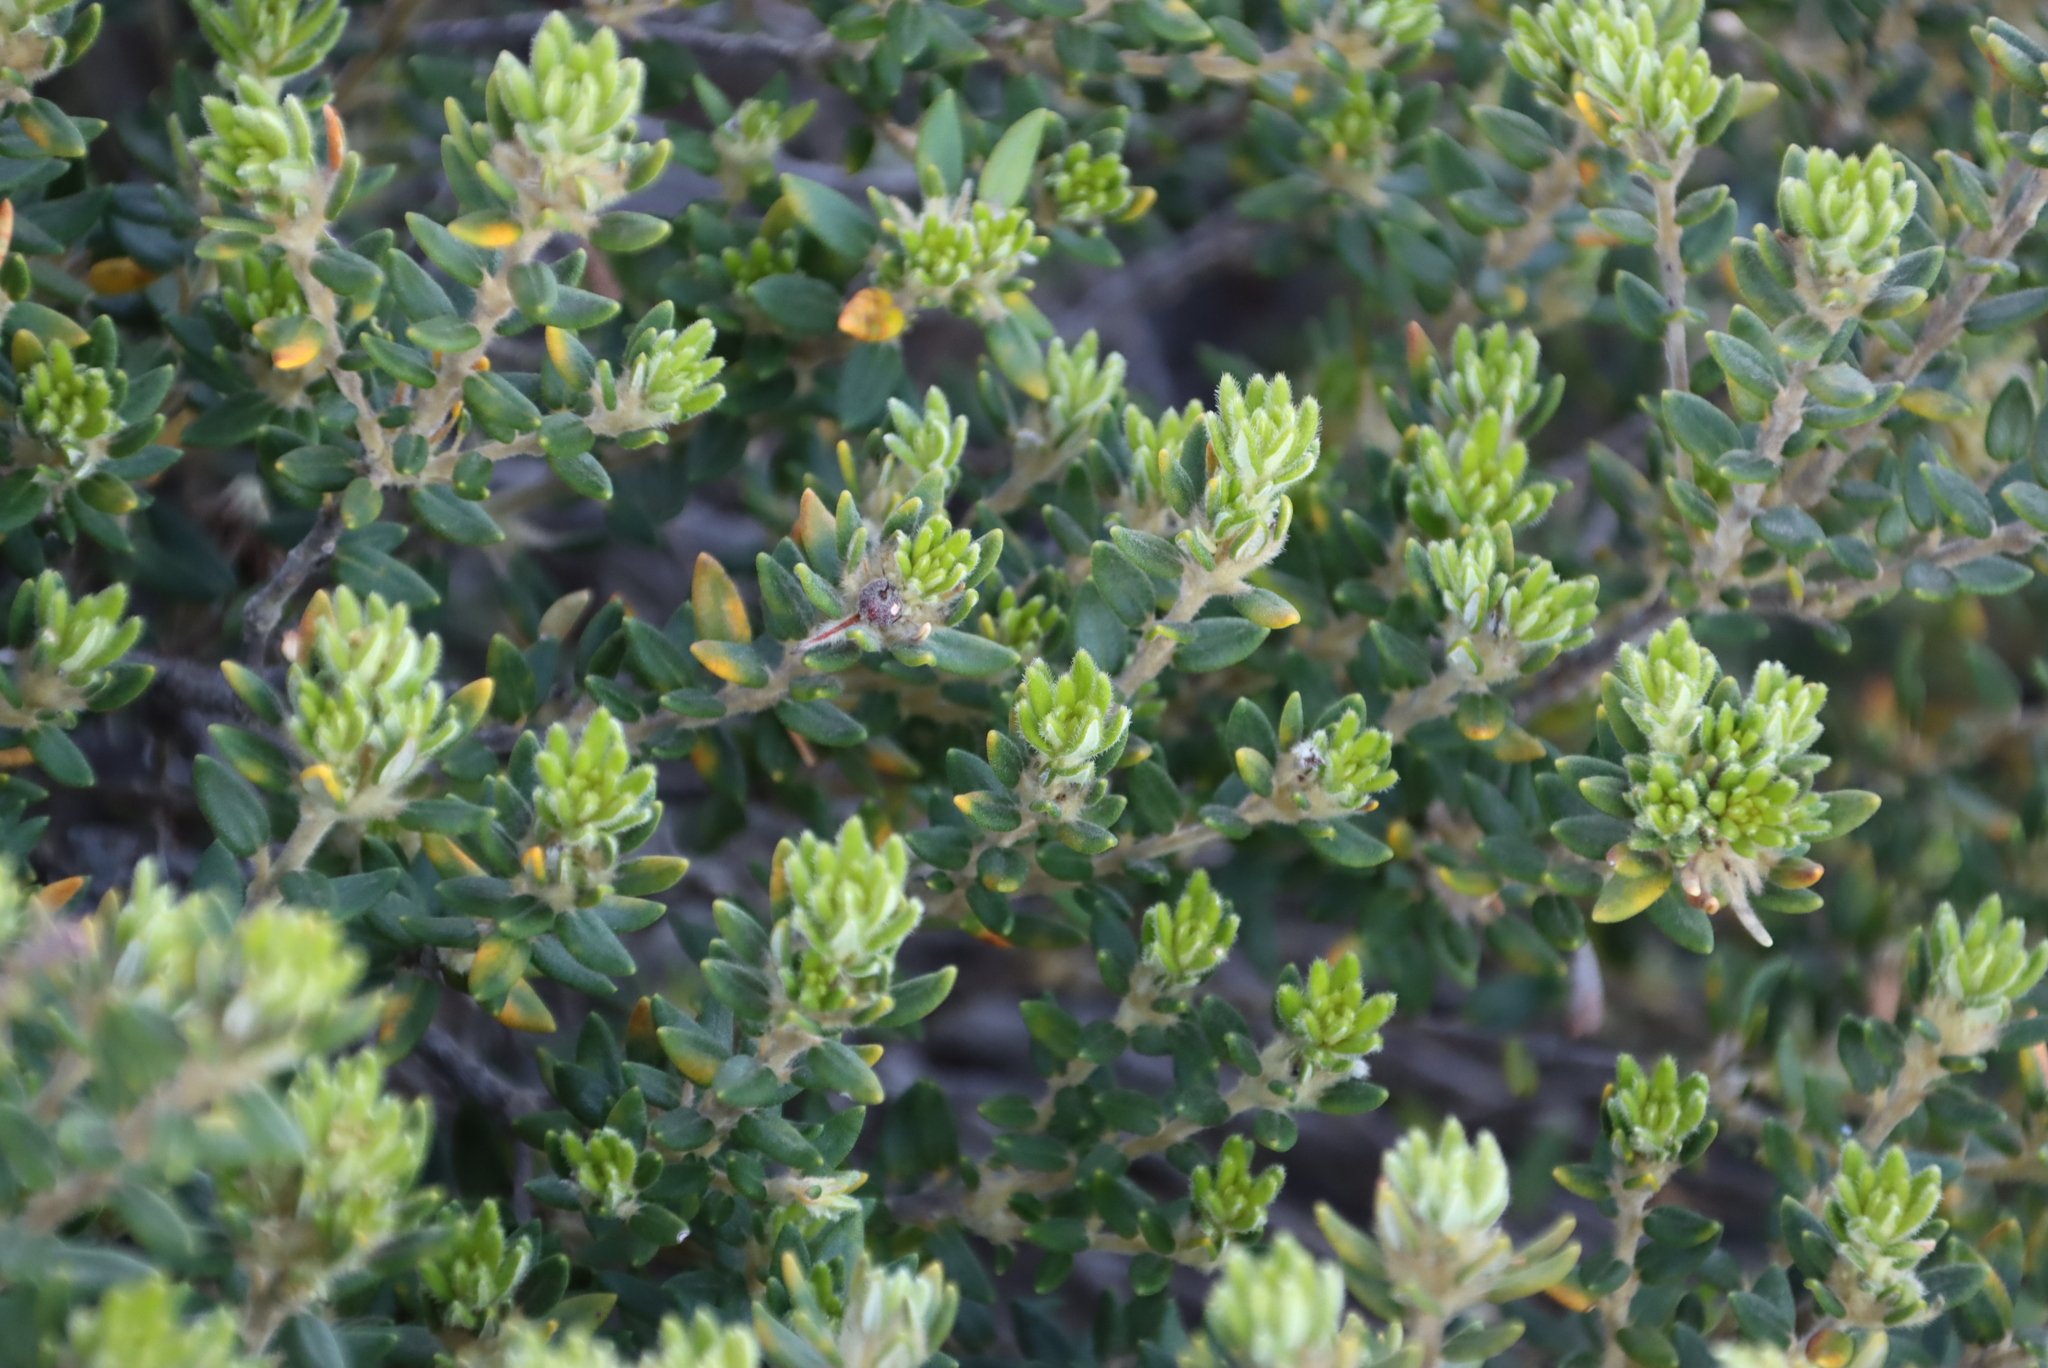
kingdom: Plantae
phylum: Tracheophyta
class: Magnoliopsida
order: Rosales
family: Rhamnaceae
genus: Phylica
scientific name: Phylica dioica
